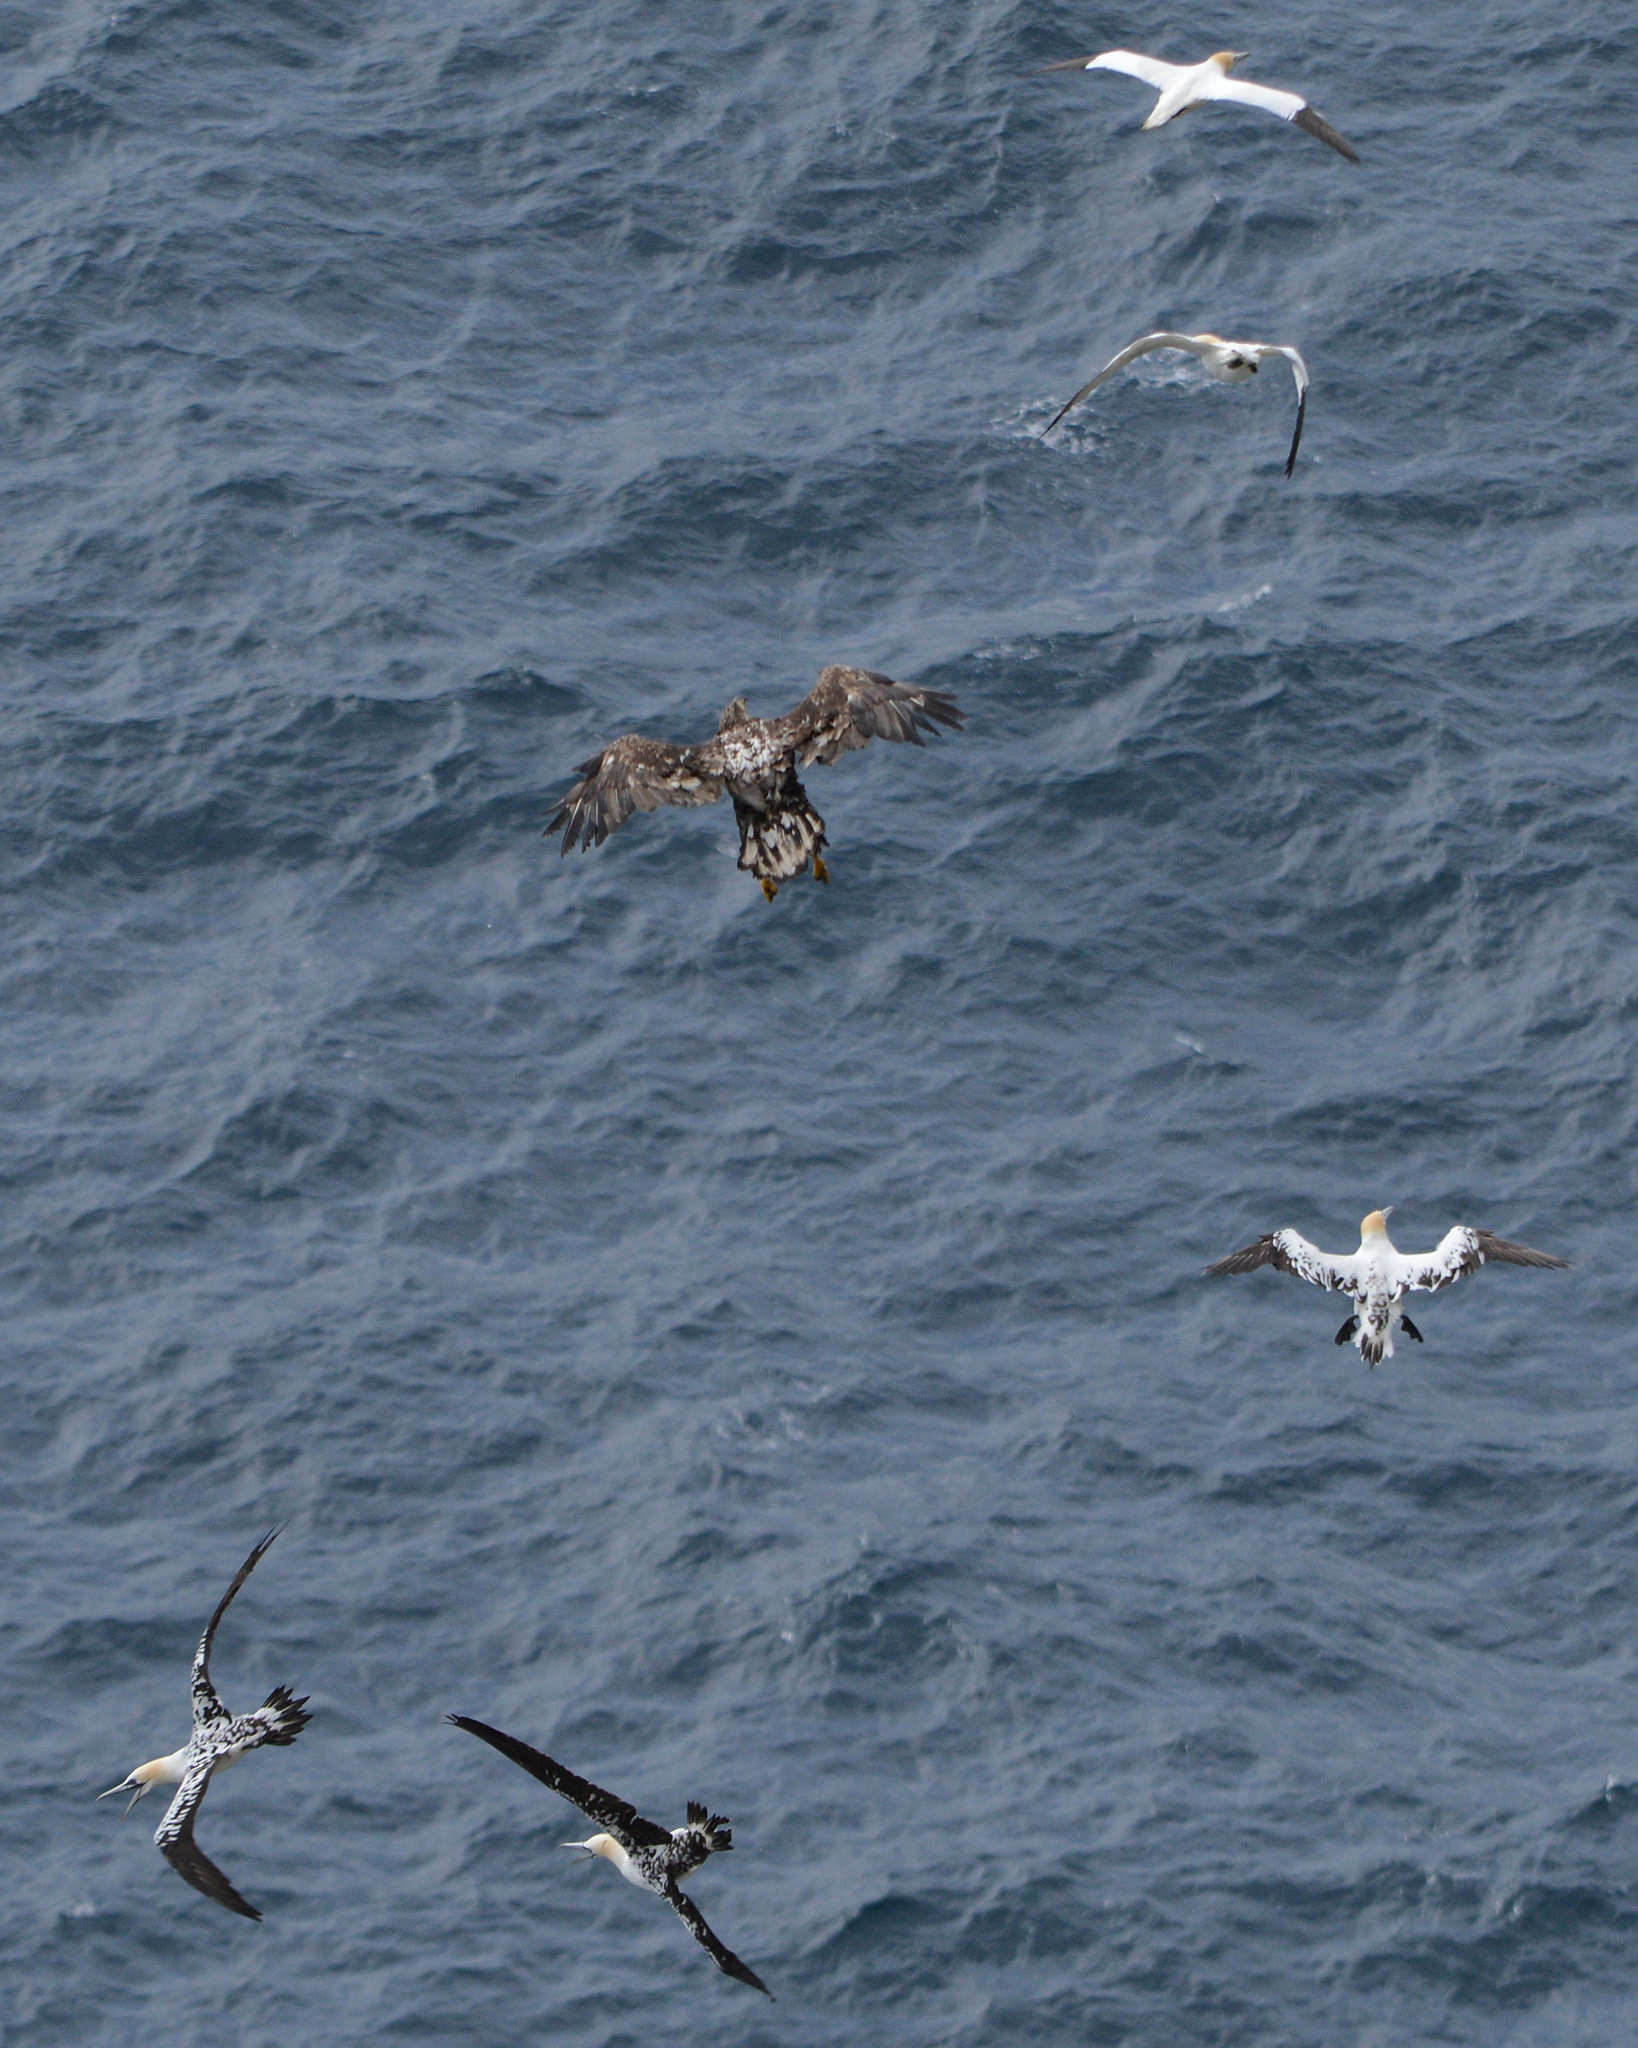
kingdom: Animalia
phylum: Chordata
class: Aves
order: Suliformes
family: Sulidae
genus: Morus
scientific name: Morus bassanus
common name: Northern gannet
